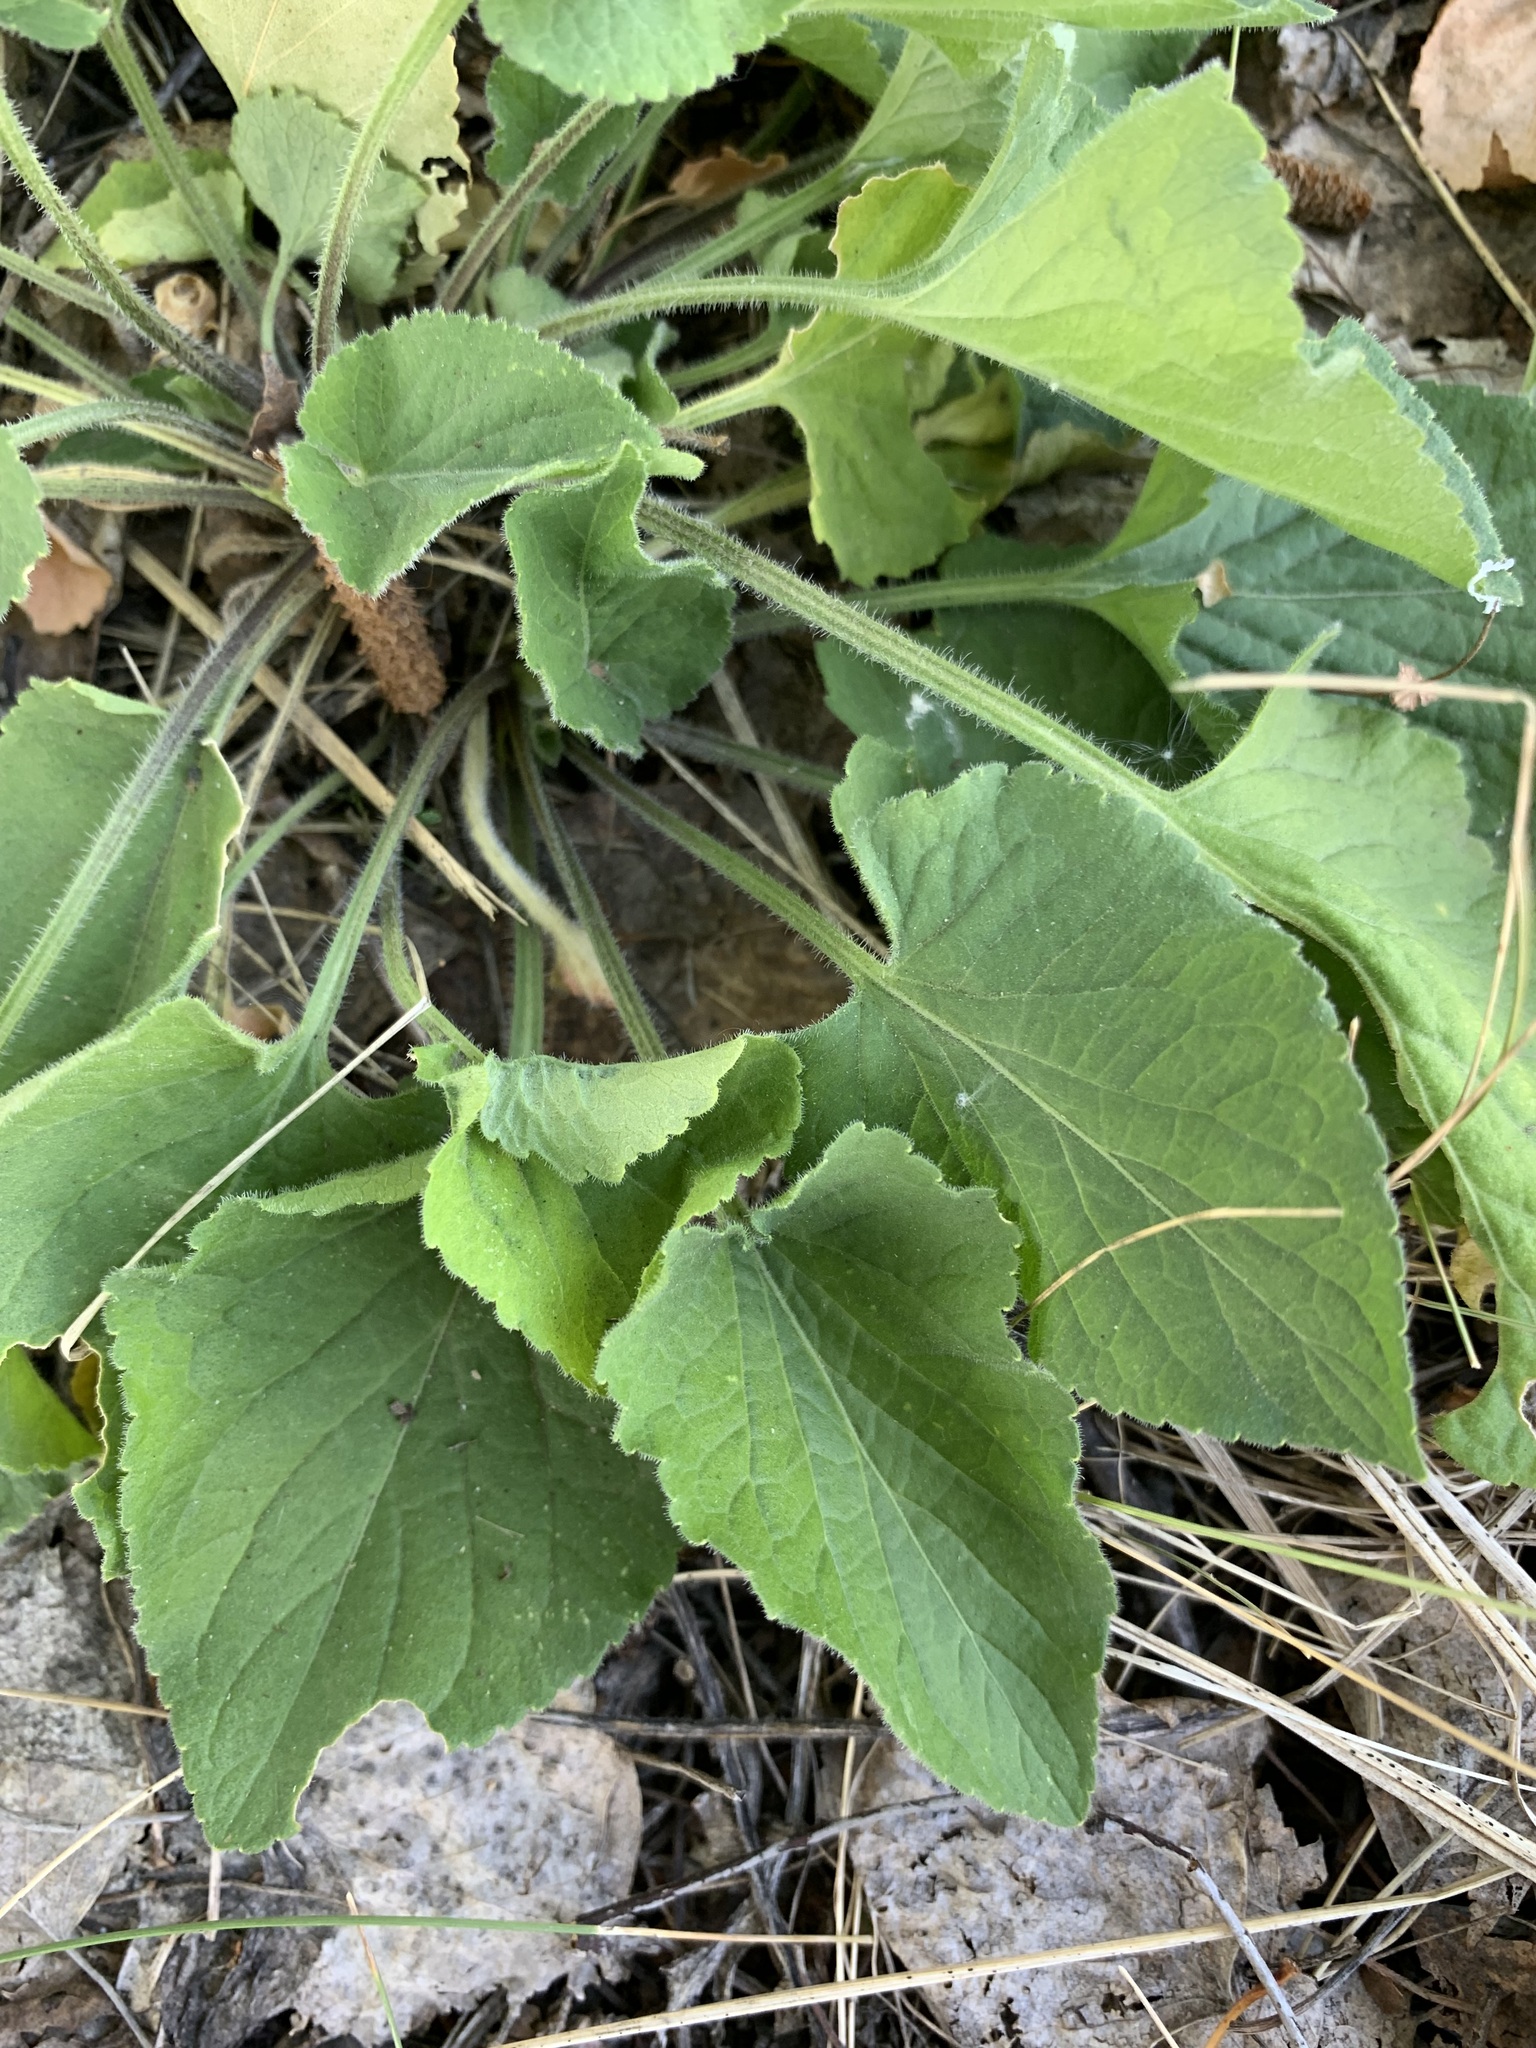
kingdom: Plantae
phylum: Tracheophyta
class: Magnoliopsida
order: Malpighiales
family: Violaceae
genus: Viola
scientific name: Viola hirta
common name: Hairy violet
